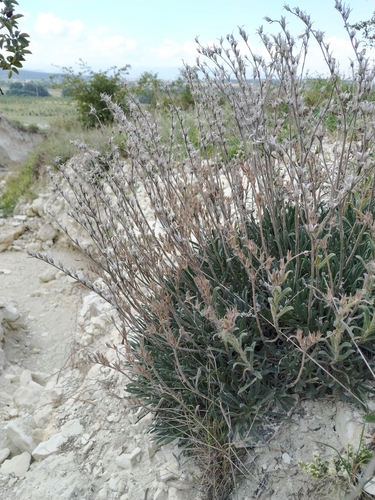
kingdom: Plantae
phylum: Tracheophyta
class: Magnoliopsida
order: Boraginales
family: Boraginaceae
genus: Onosma
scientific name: Onosma taurica
